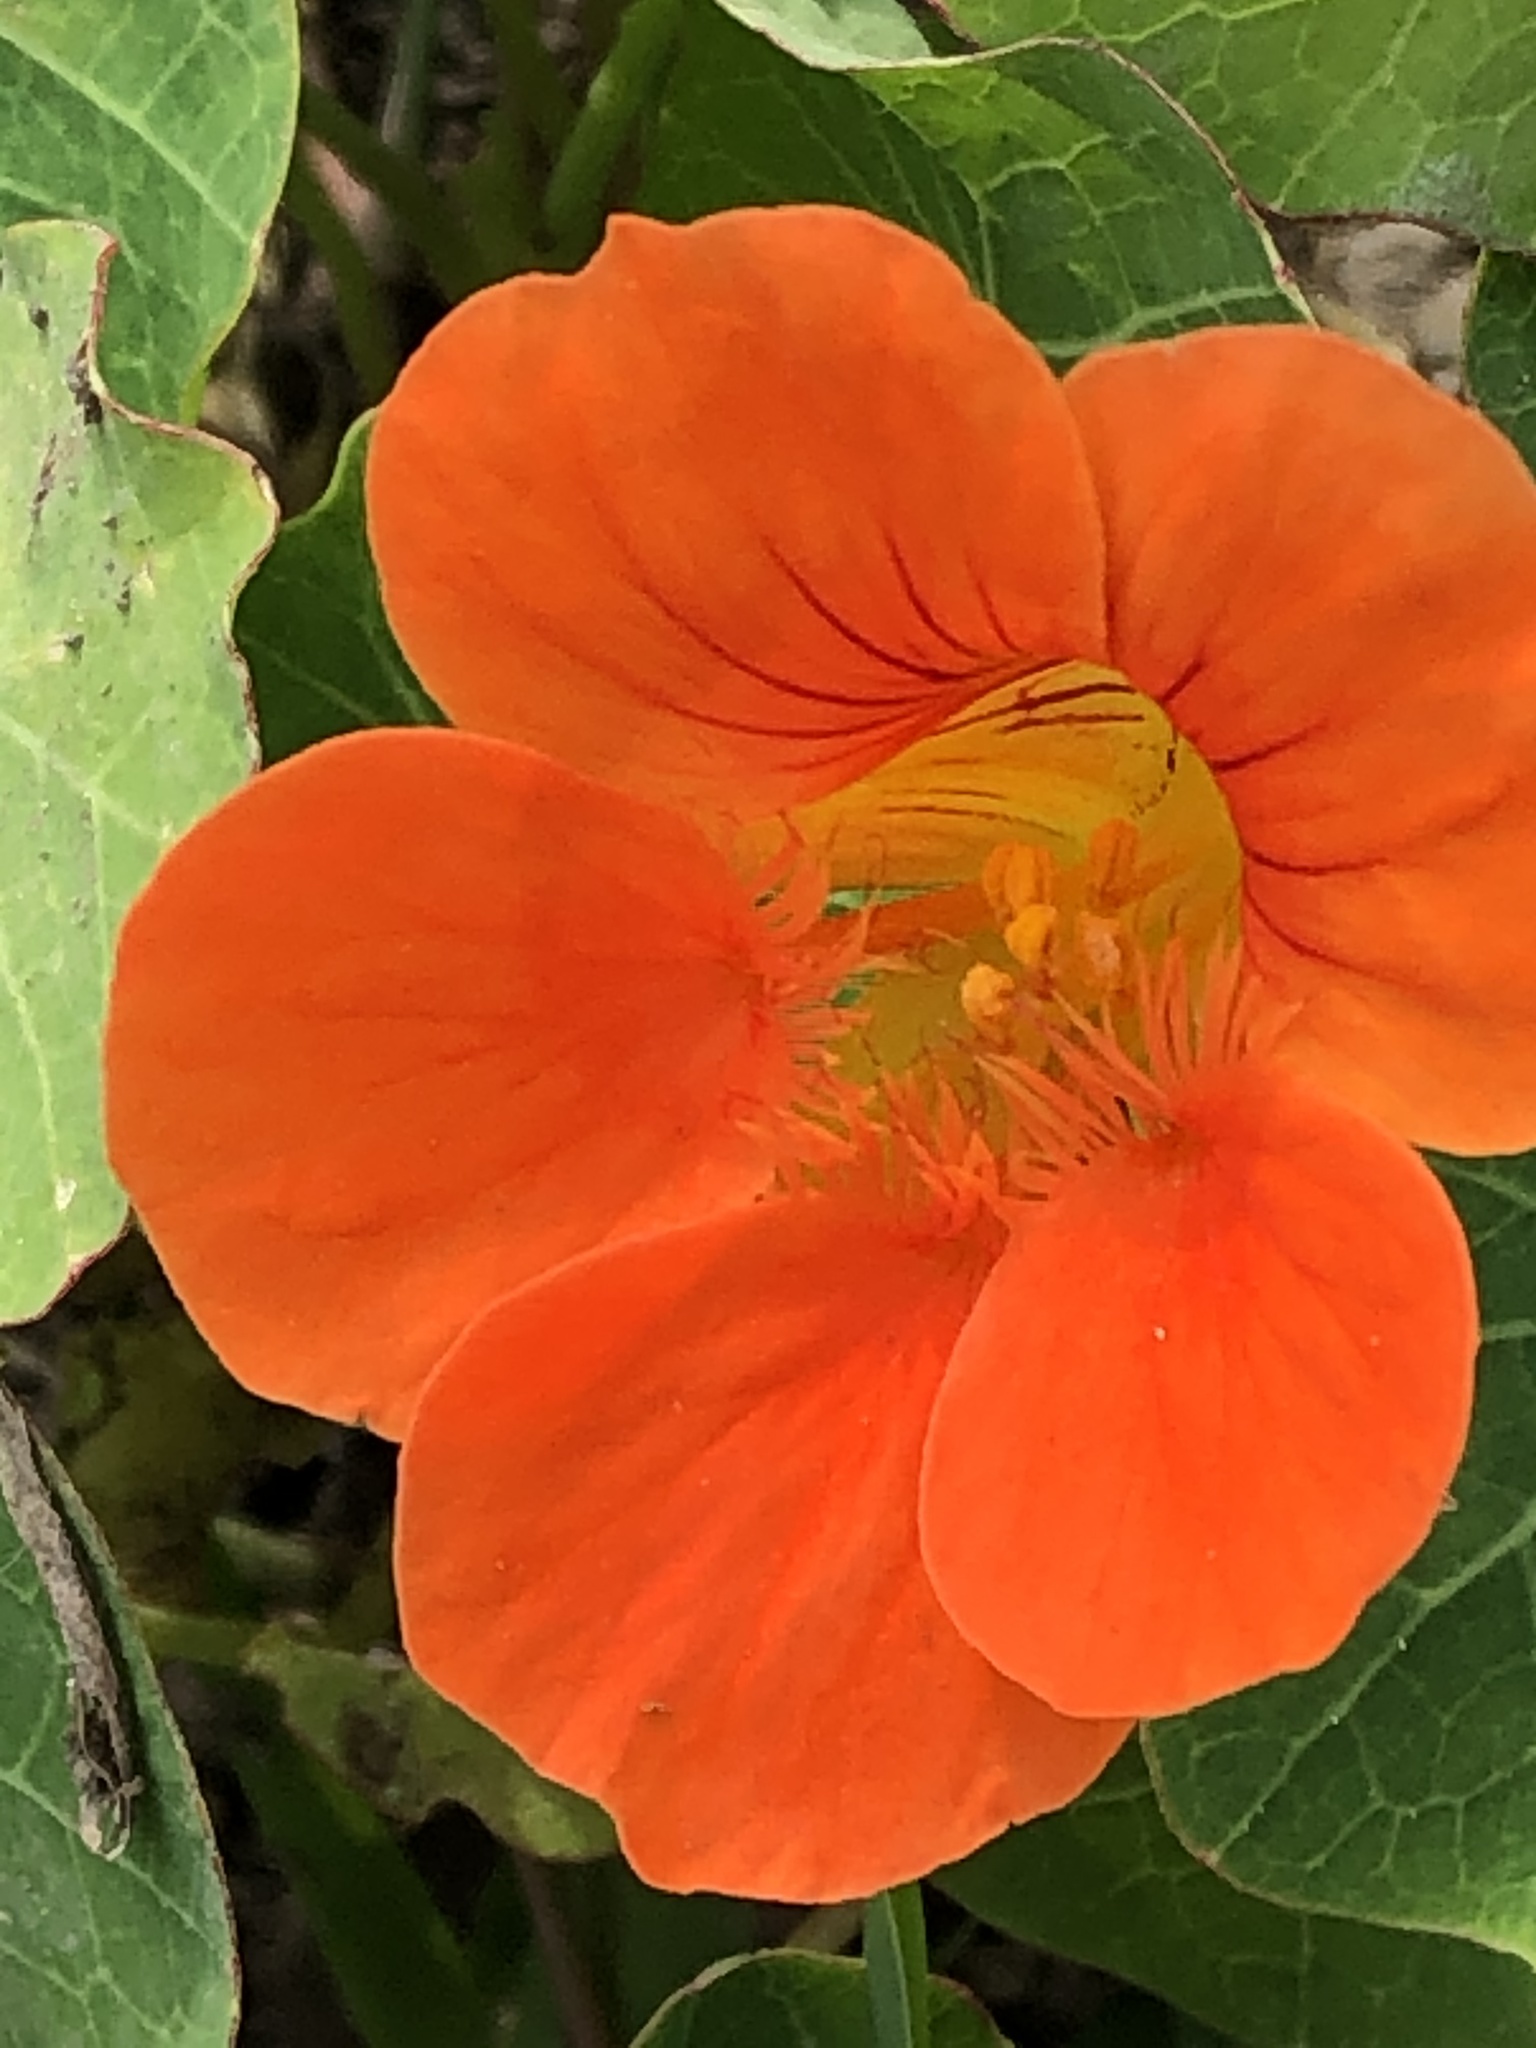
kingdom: Plantae
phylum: Tracheophyta
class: Magnoliopsida
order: Brassicales
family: Tropaeolaceae
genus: Tropaeolum
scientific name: Tropaeolum majus
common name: Nasturtium
